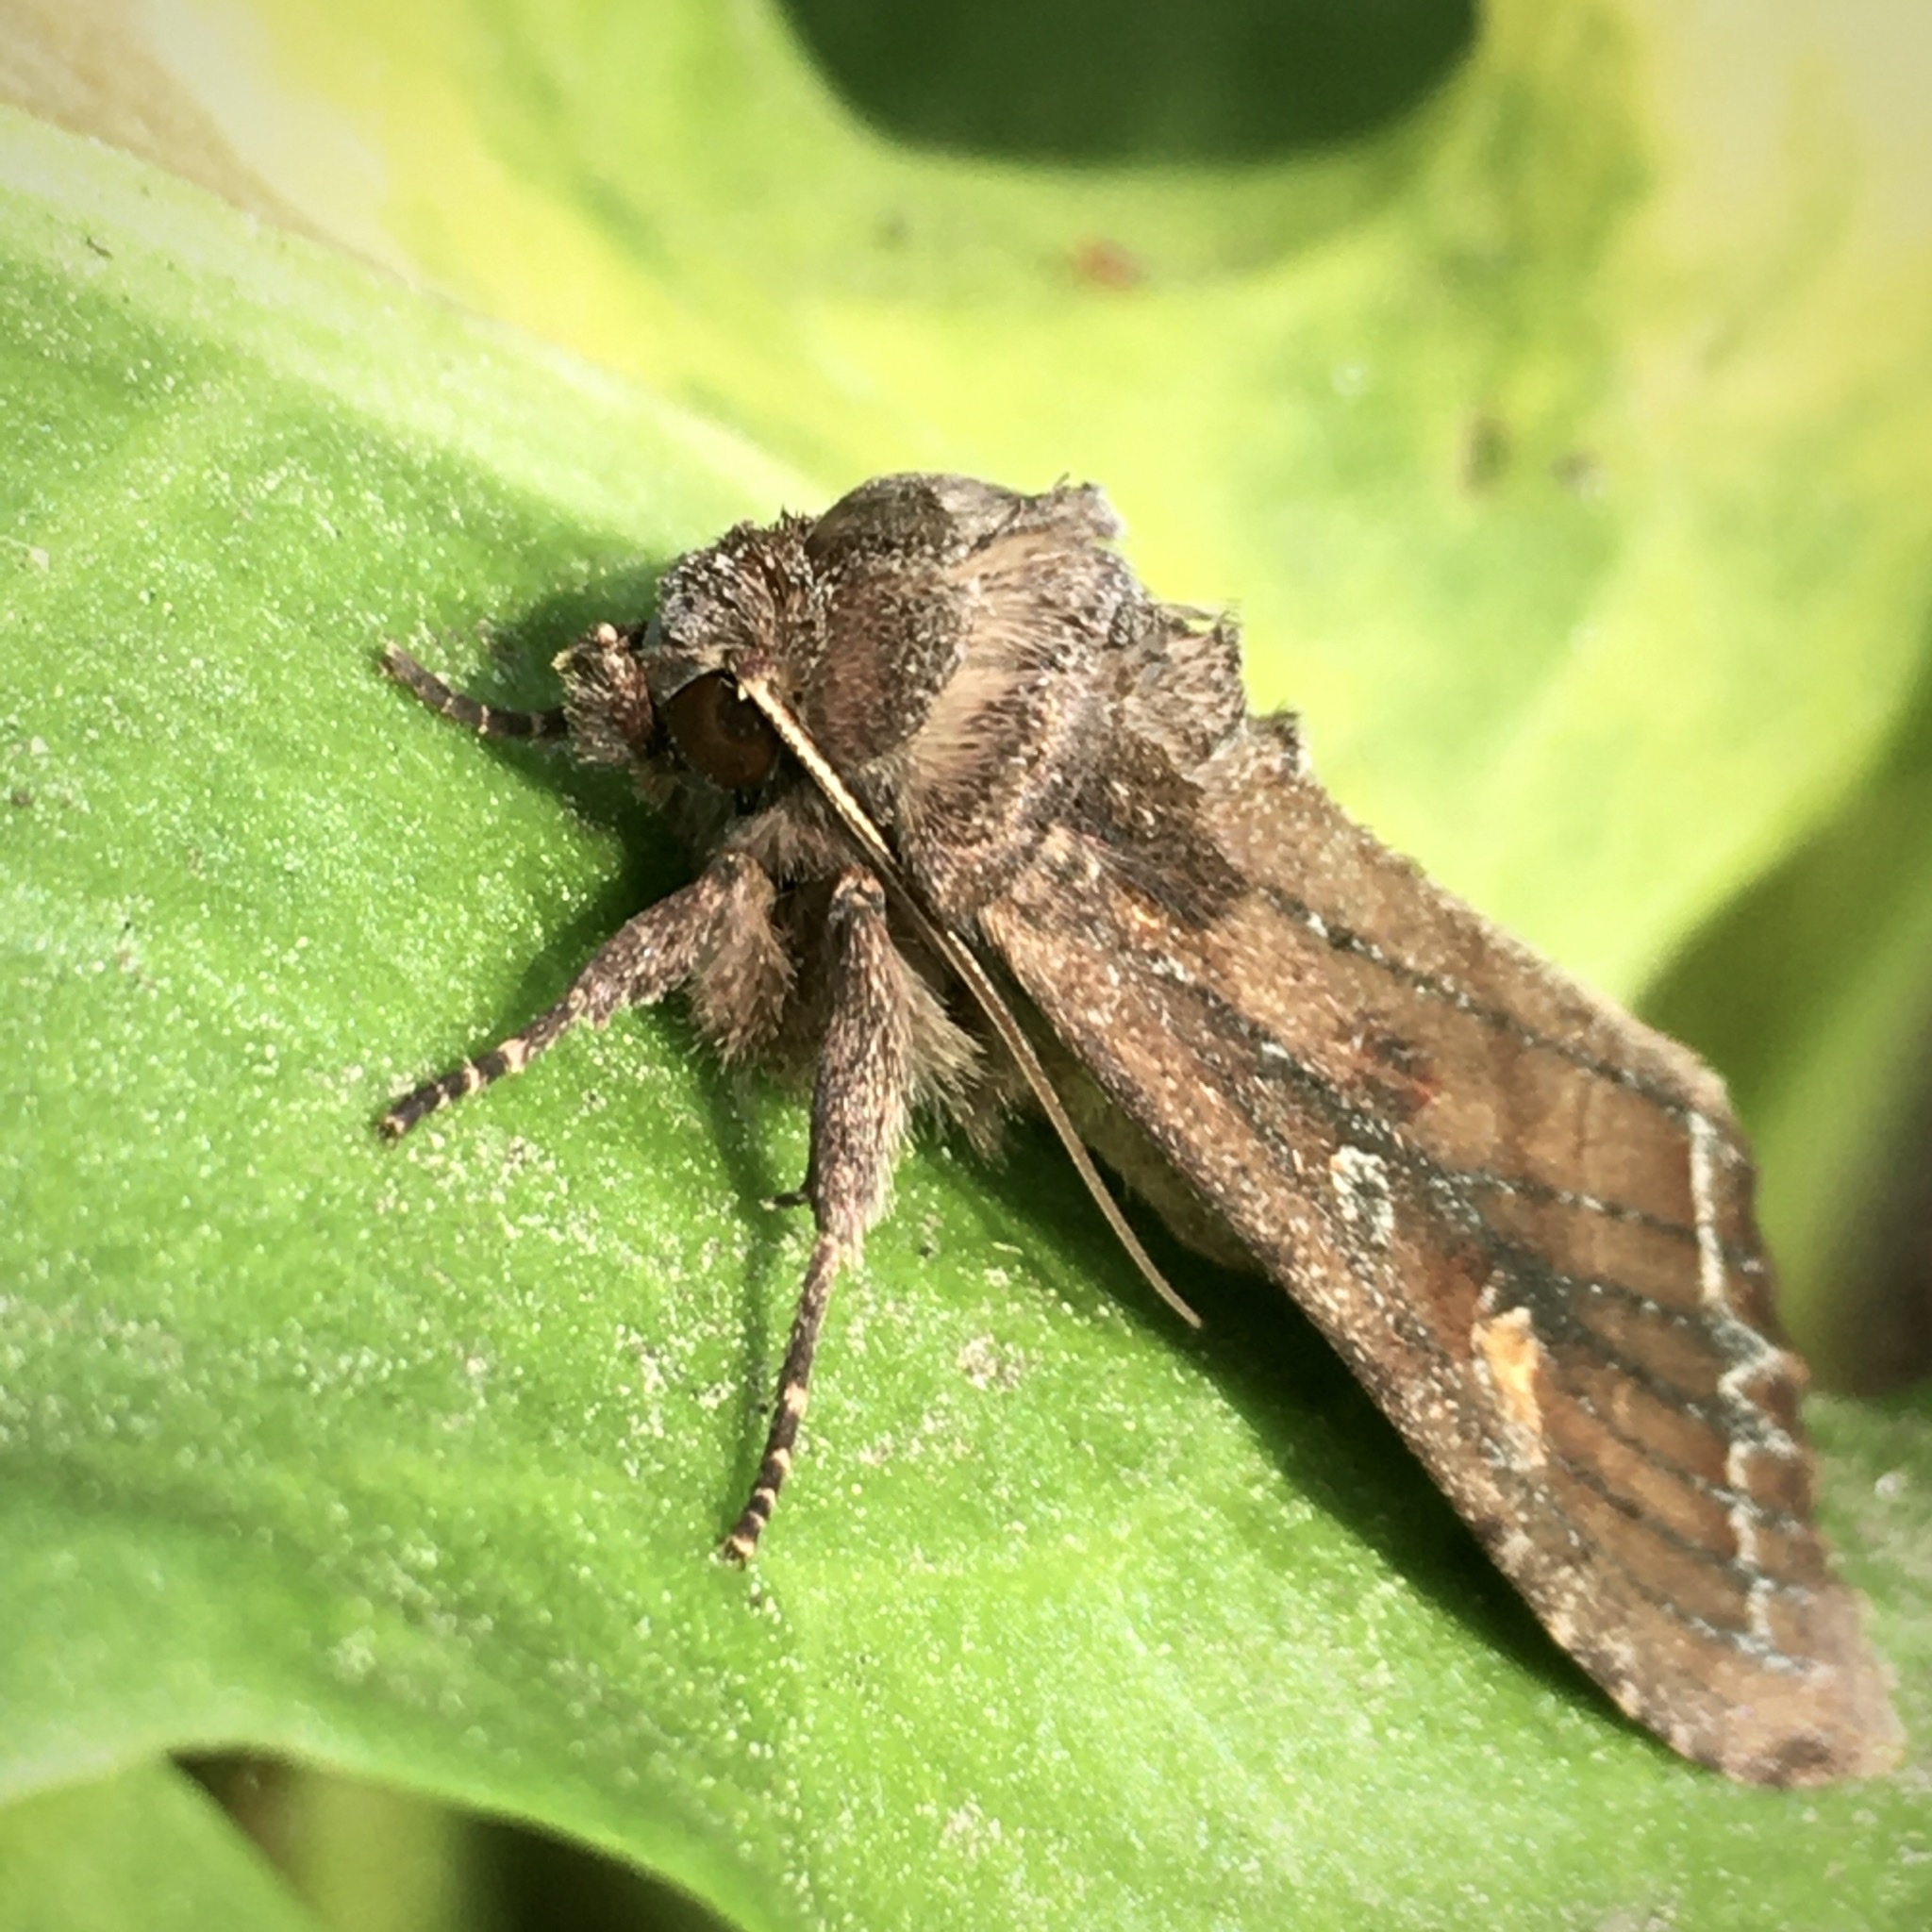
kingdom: Animalia
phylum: Arthropoda
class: Insecta
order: Lepidoptera
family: Noctuidae
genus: Lacanobia
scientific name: Lacanobia oleracea
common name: Bright-line brown-eye
